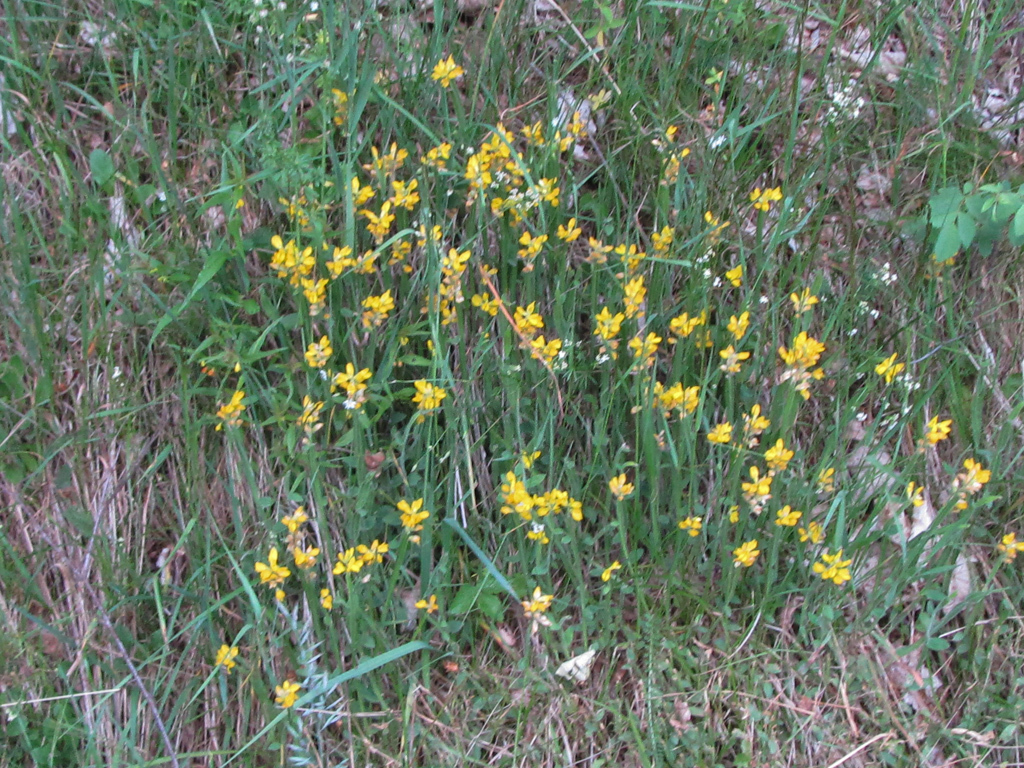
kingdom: Plantae
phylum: Tracheophyta
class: Magnoliopsida
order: Fabales
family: Fabaceae
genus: Genista
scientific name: Genista sagittalis
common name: Winged greenweed
